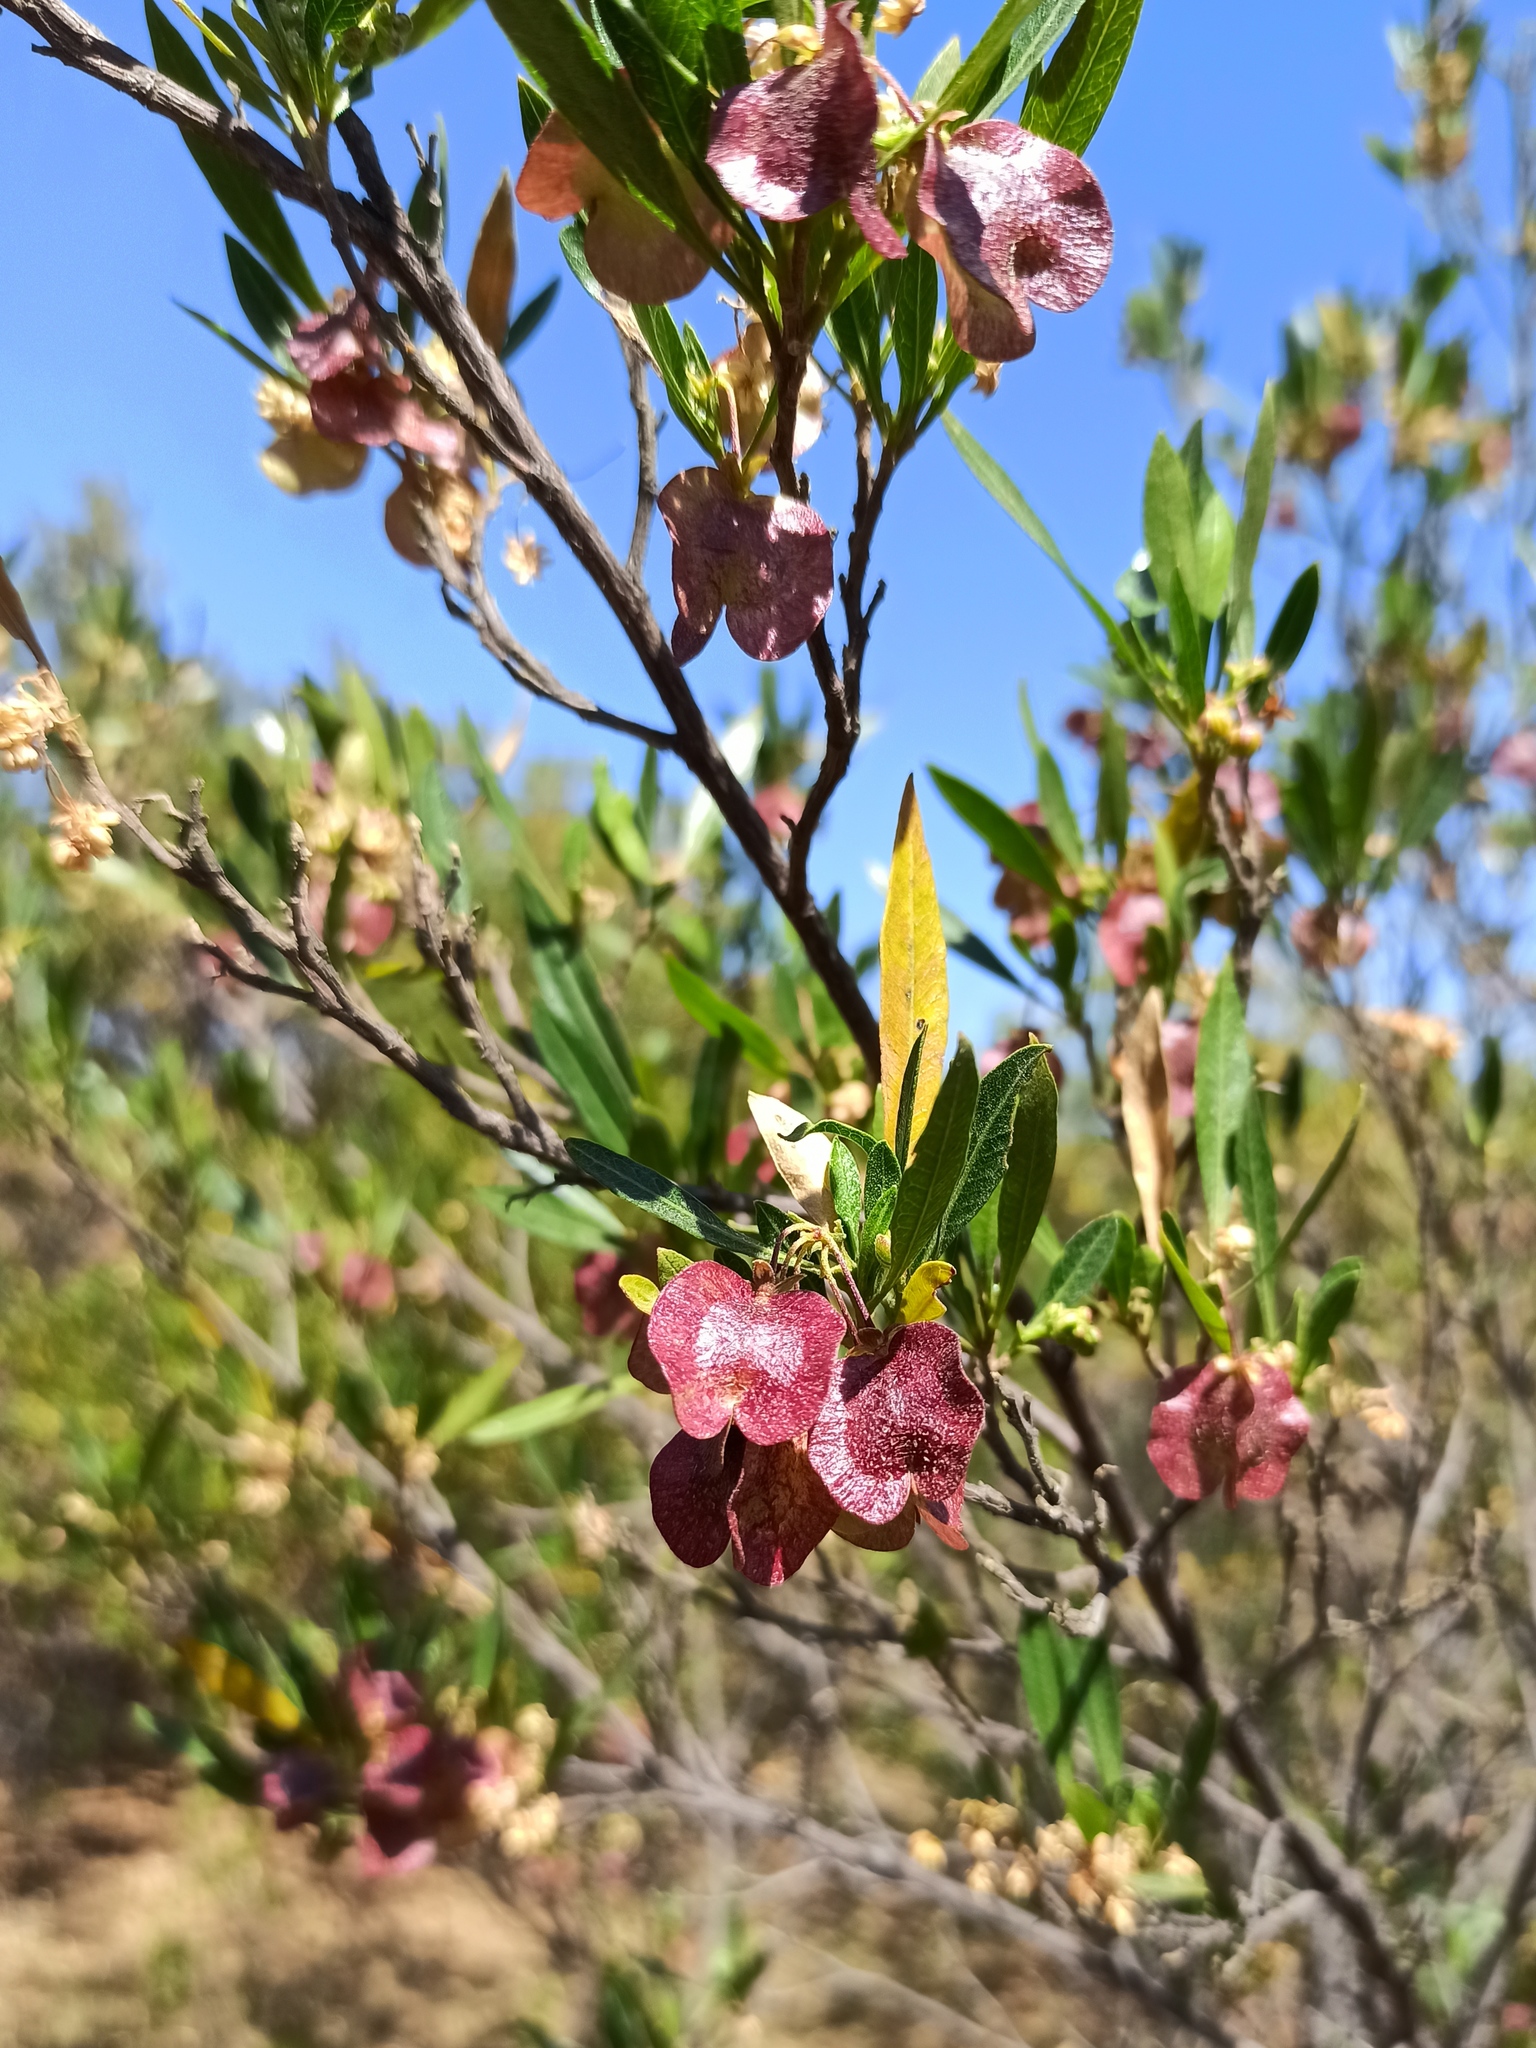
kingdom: Plantae
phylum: Tracheophyta
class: Magnoliopsida
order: Sapindales
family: Sapindaceae
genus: Dodonaea
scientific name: Dodonaea viscosa
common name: Hopbush
